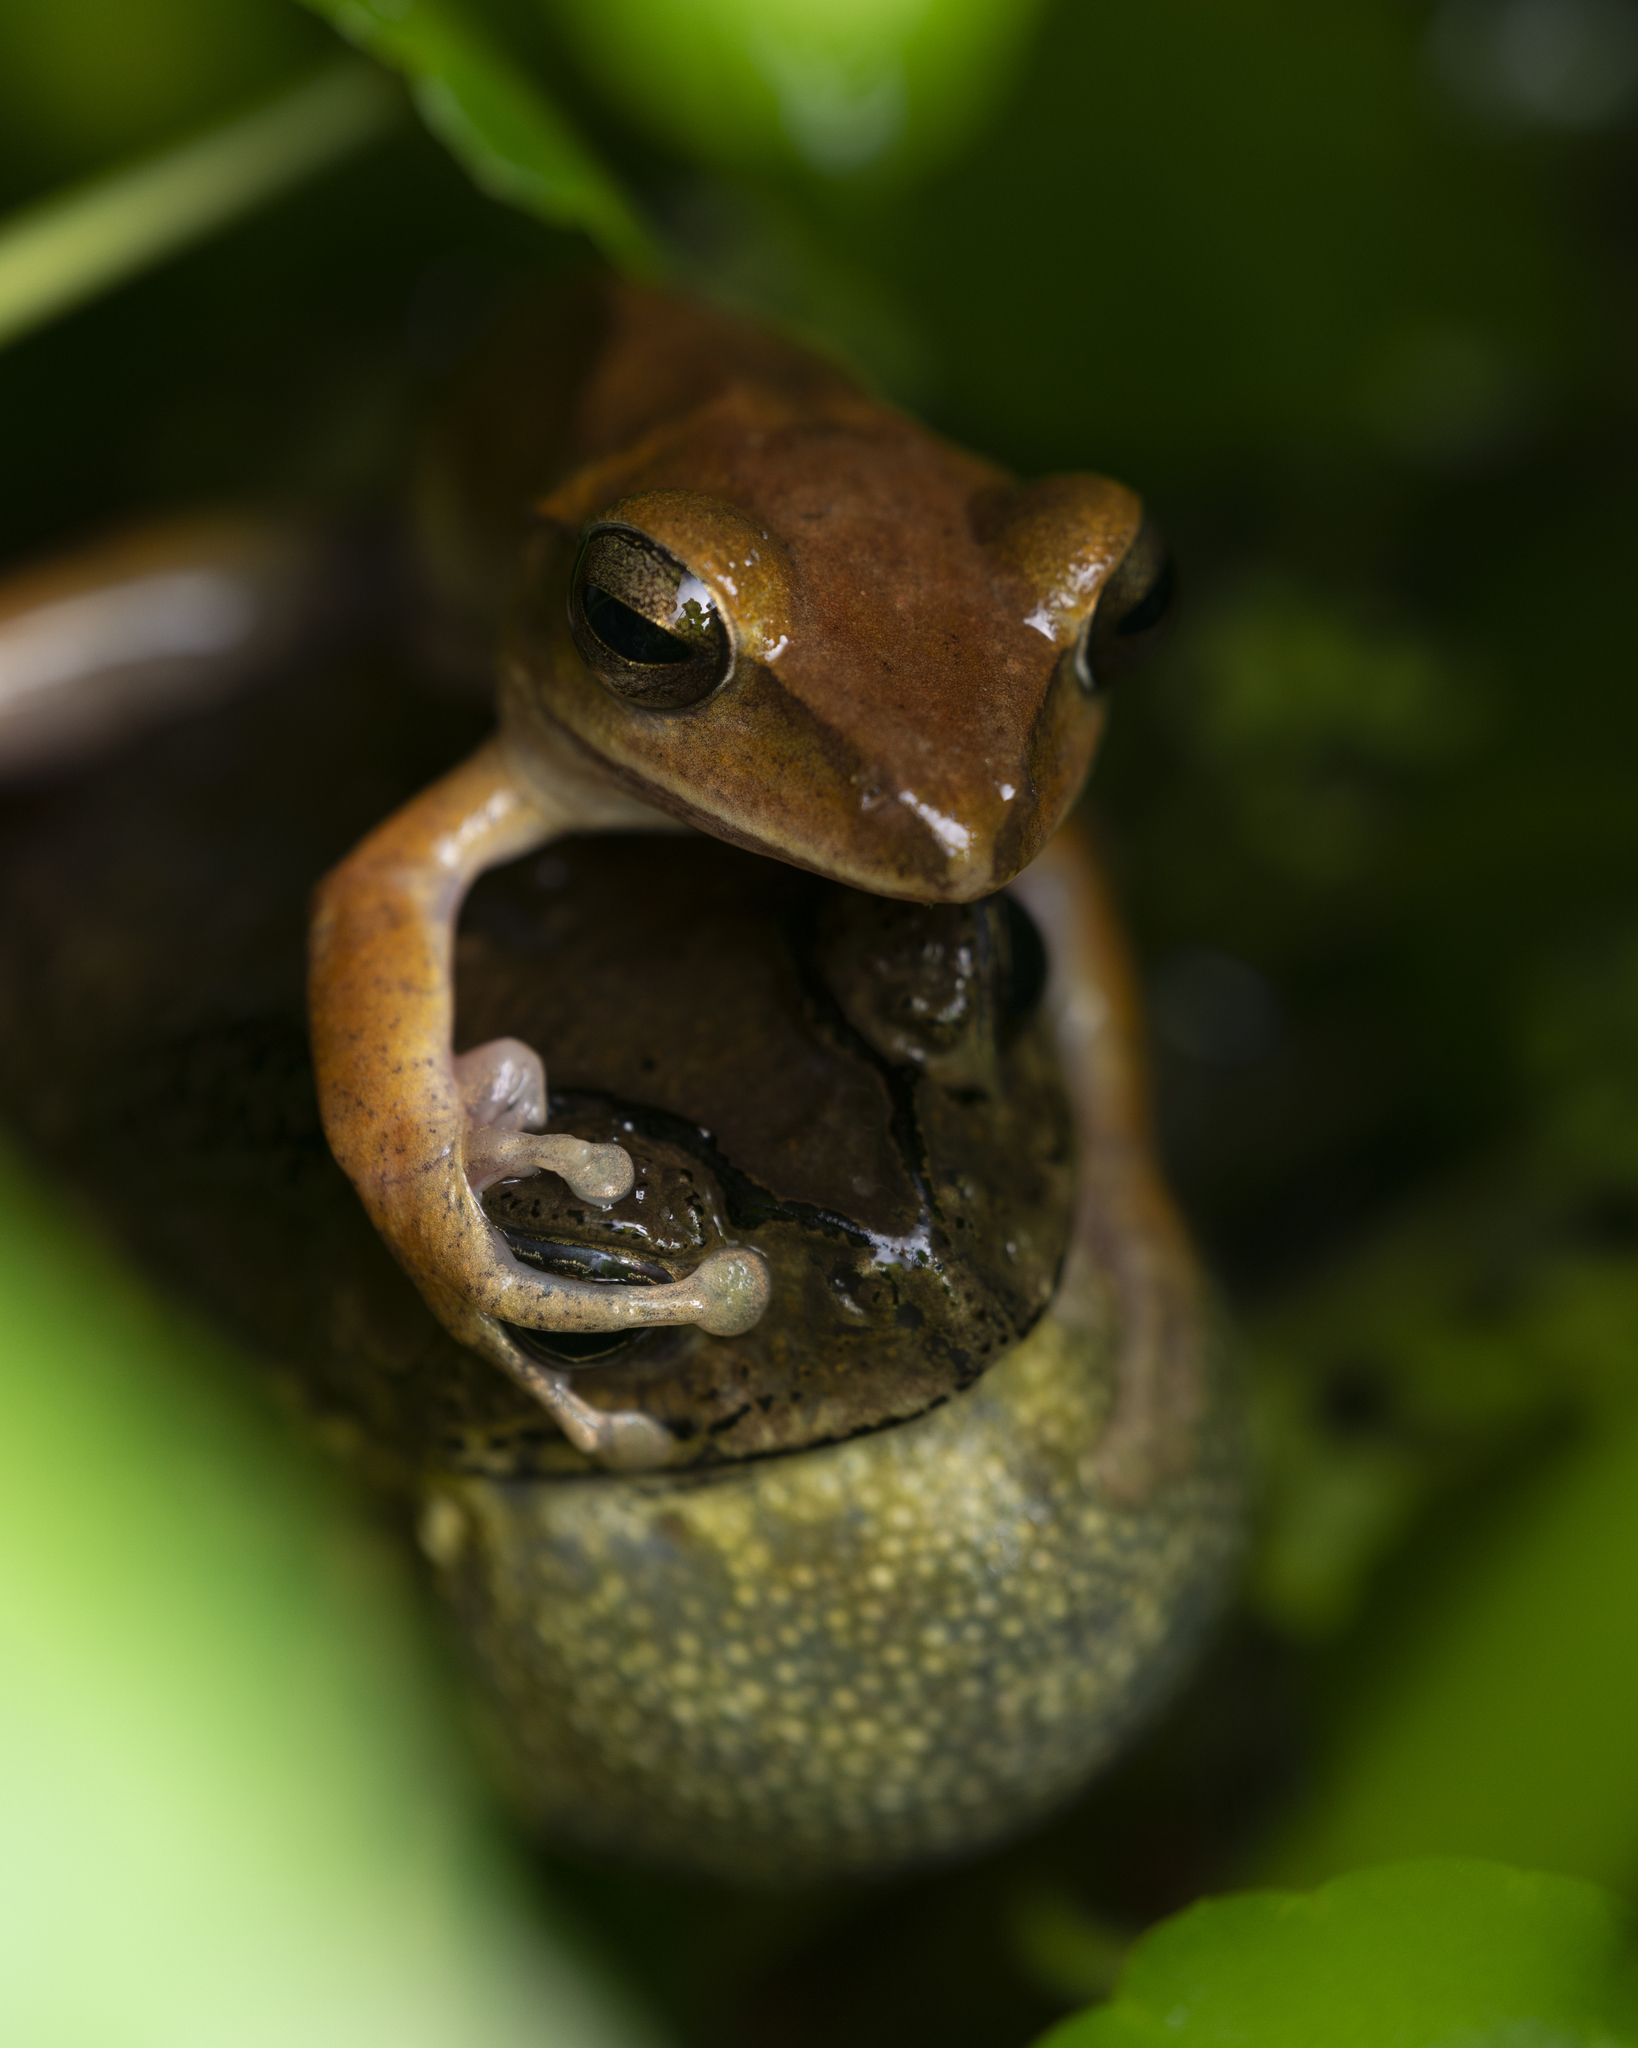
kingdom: Animalia
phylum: Chordata
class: Amphibia
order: Anura
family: Rhacophoridae
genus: Polypedates
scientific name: Polypedates megacephalus
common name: Hong kong whipping frog
